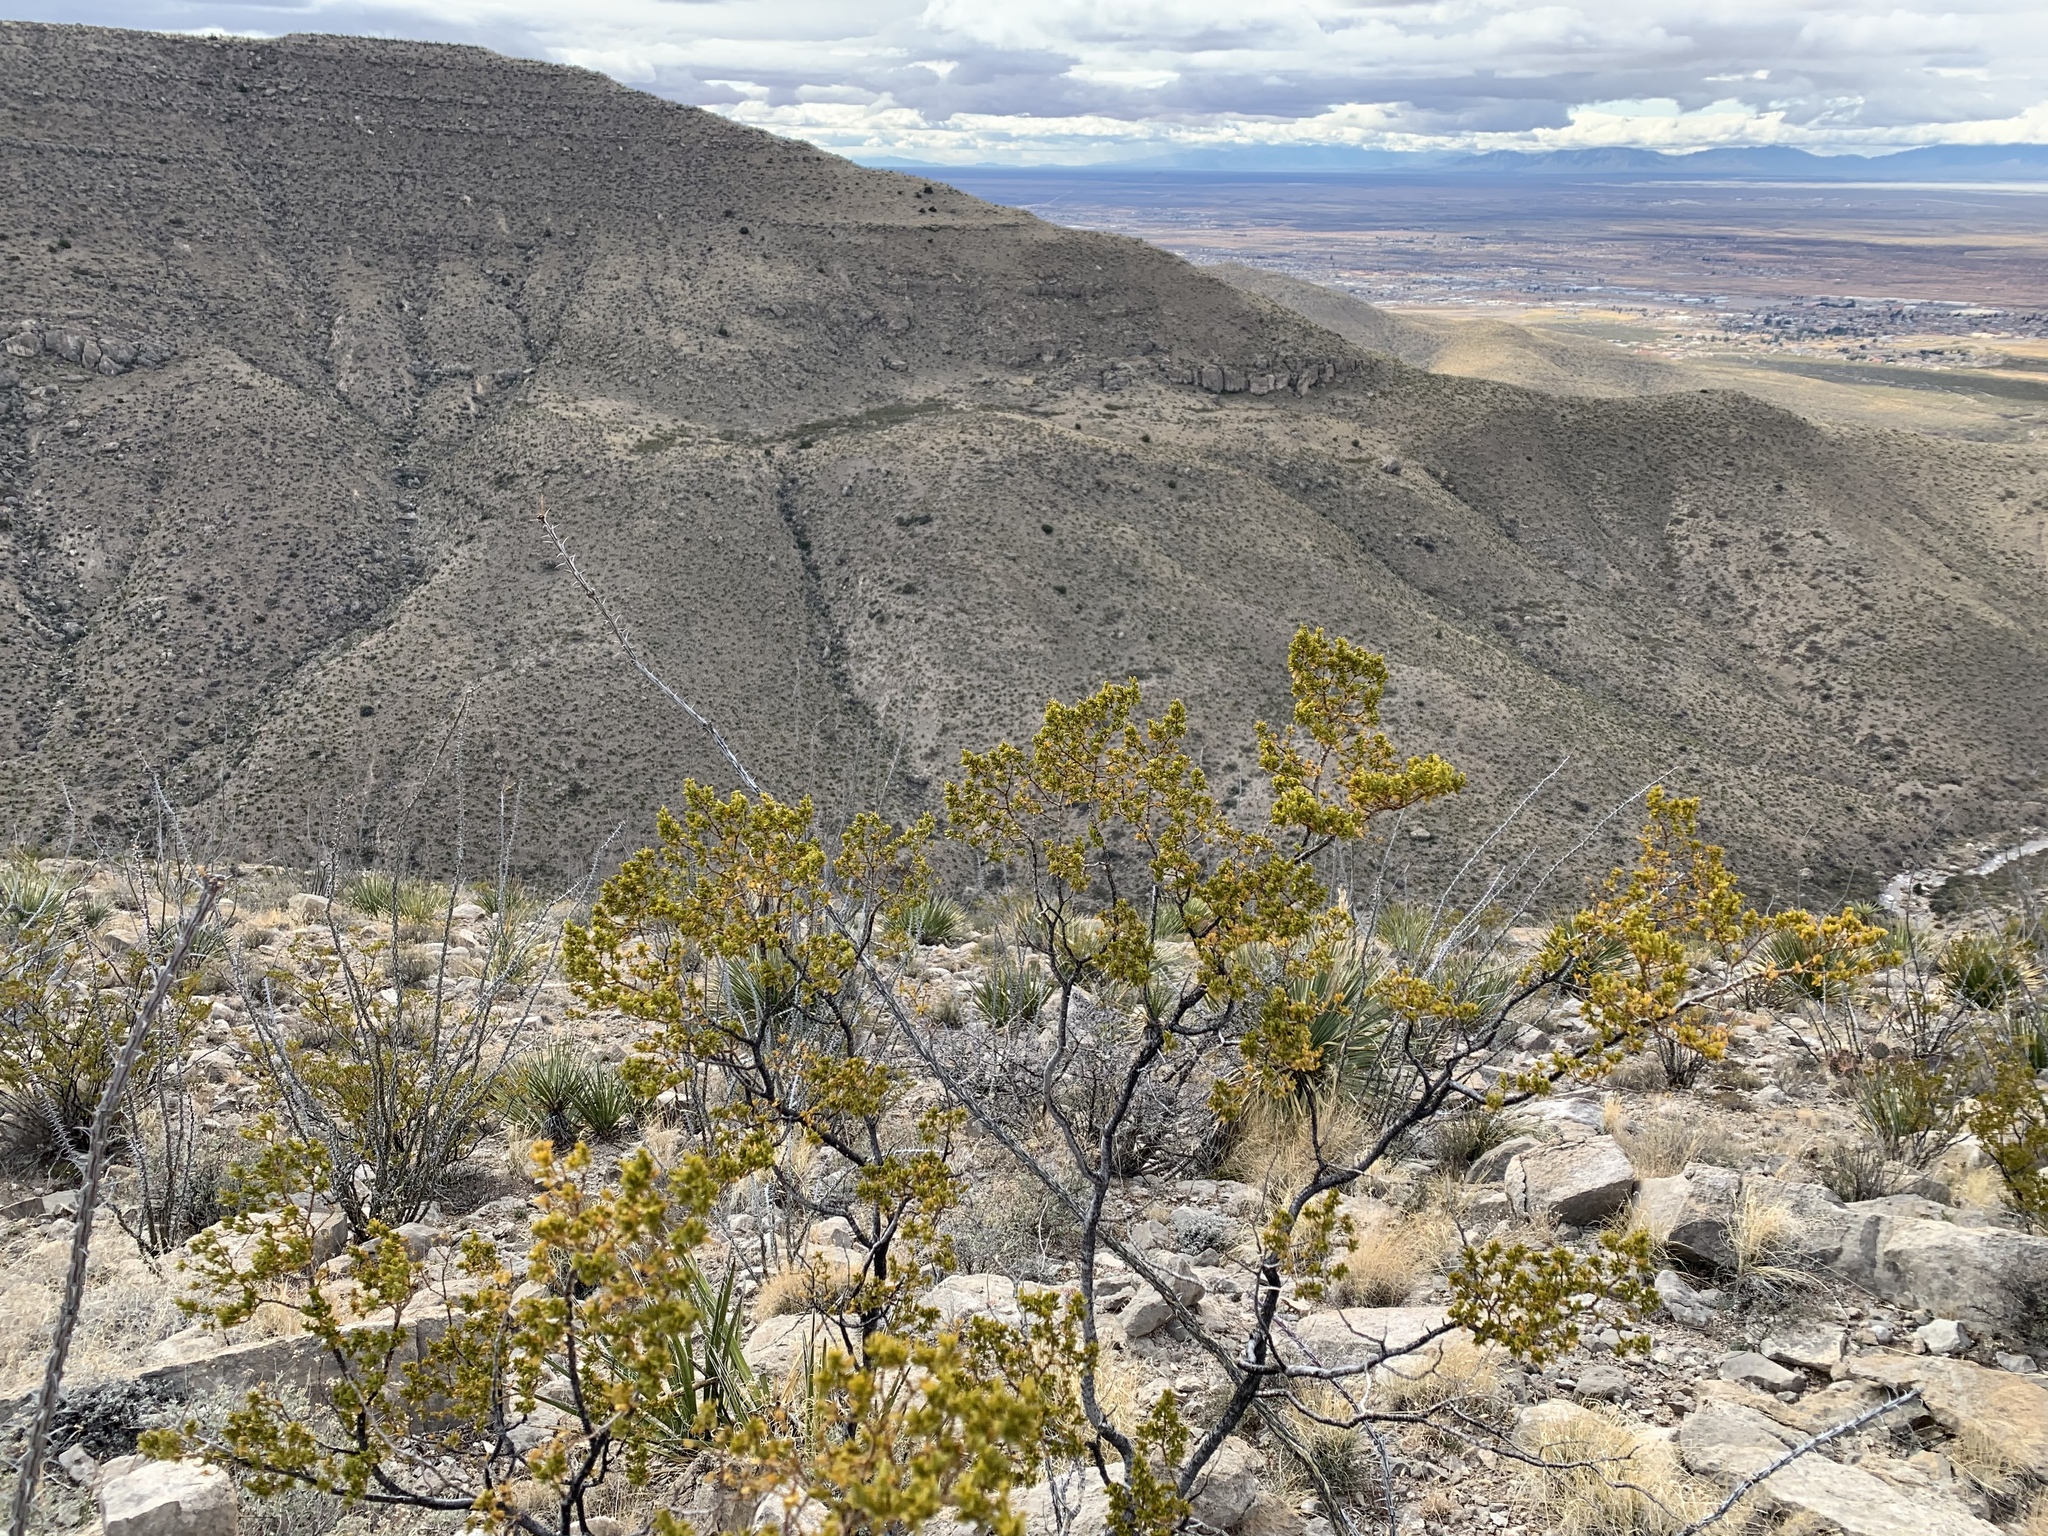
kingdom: Plantae
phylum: Tracheophyta
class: Magnoliopsida
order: Zygophyllales
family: Zygophyllaceae
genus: Larrea
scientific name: Larrea tridentata
